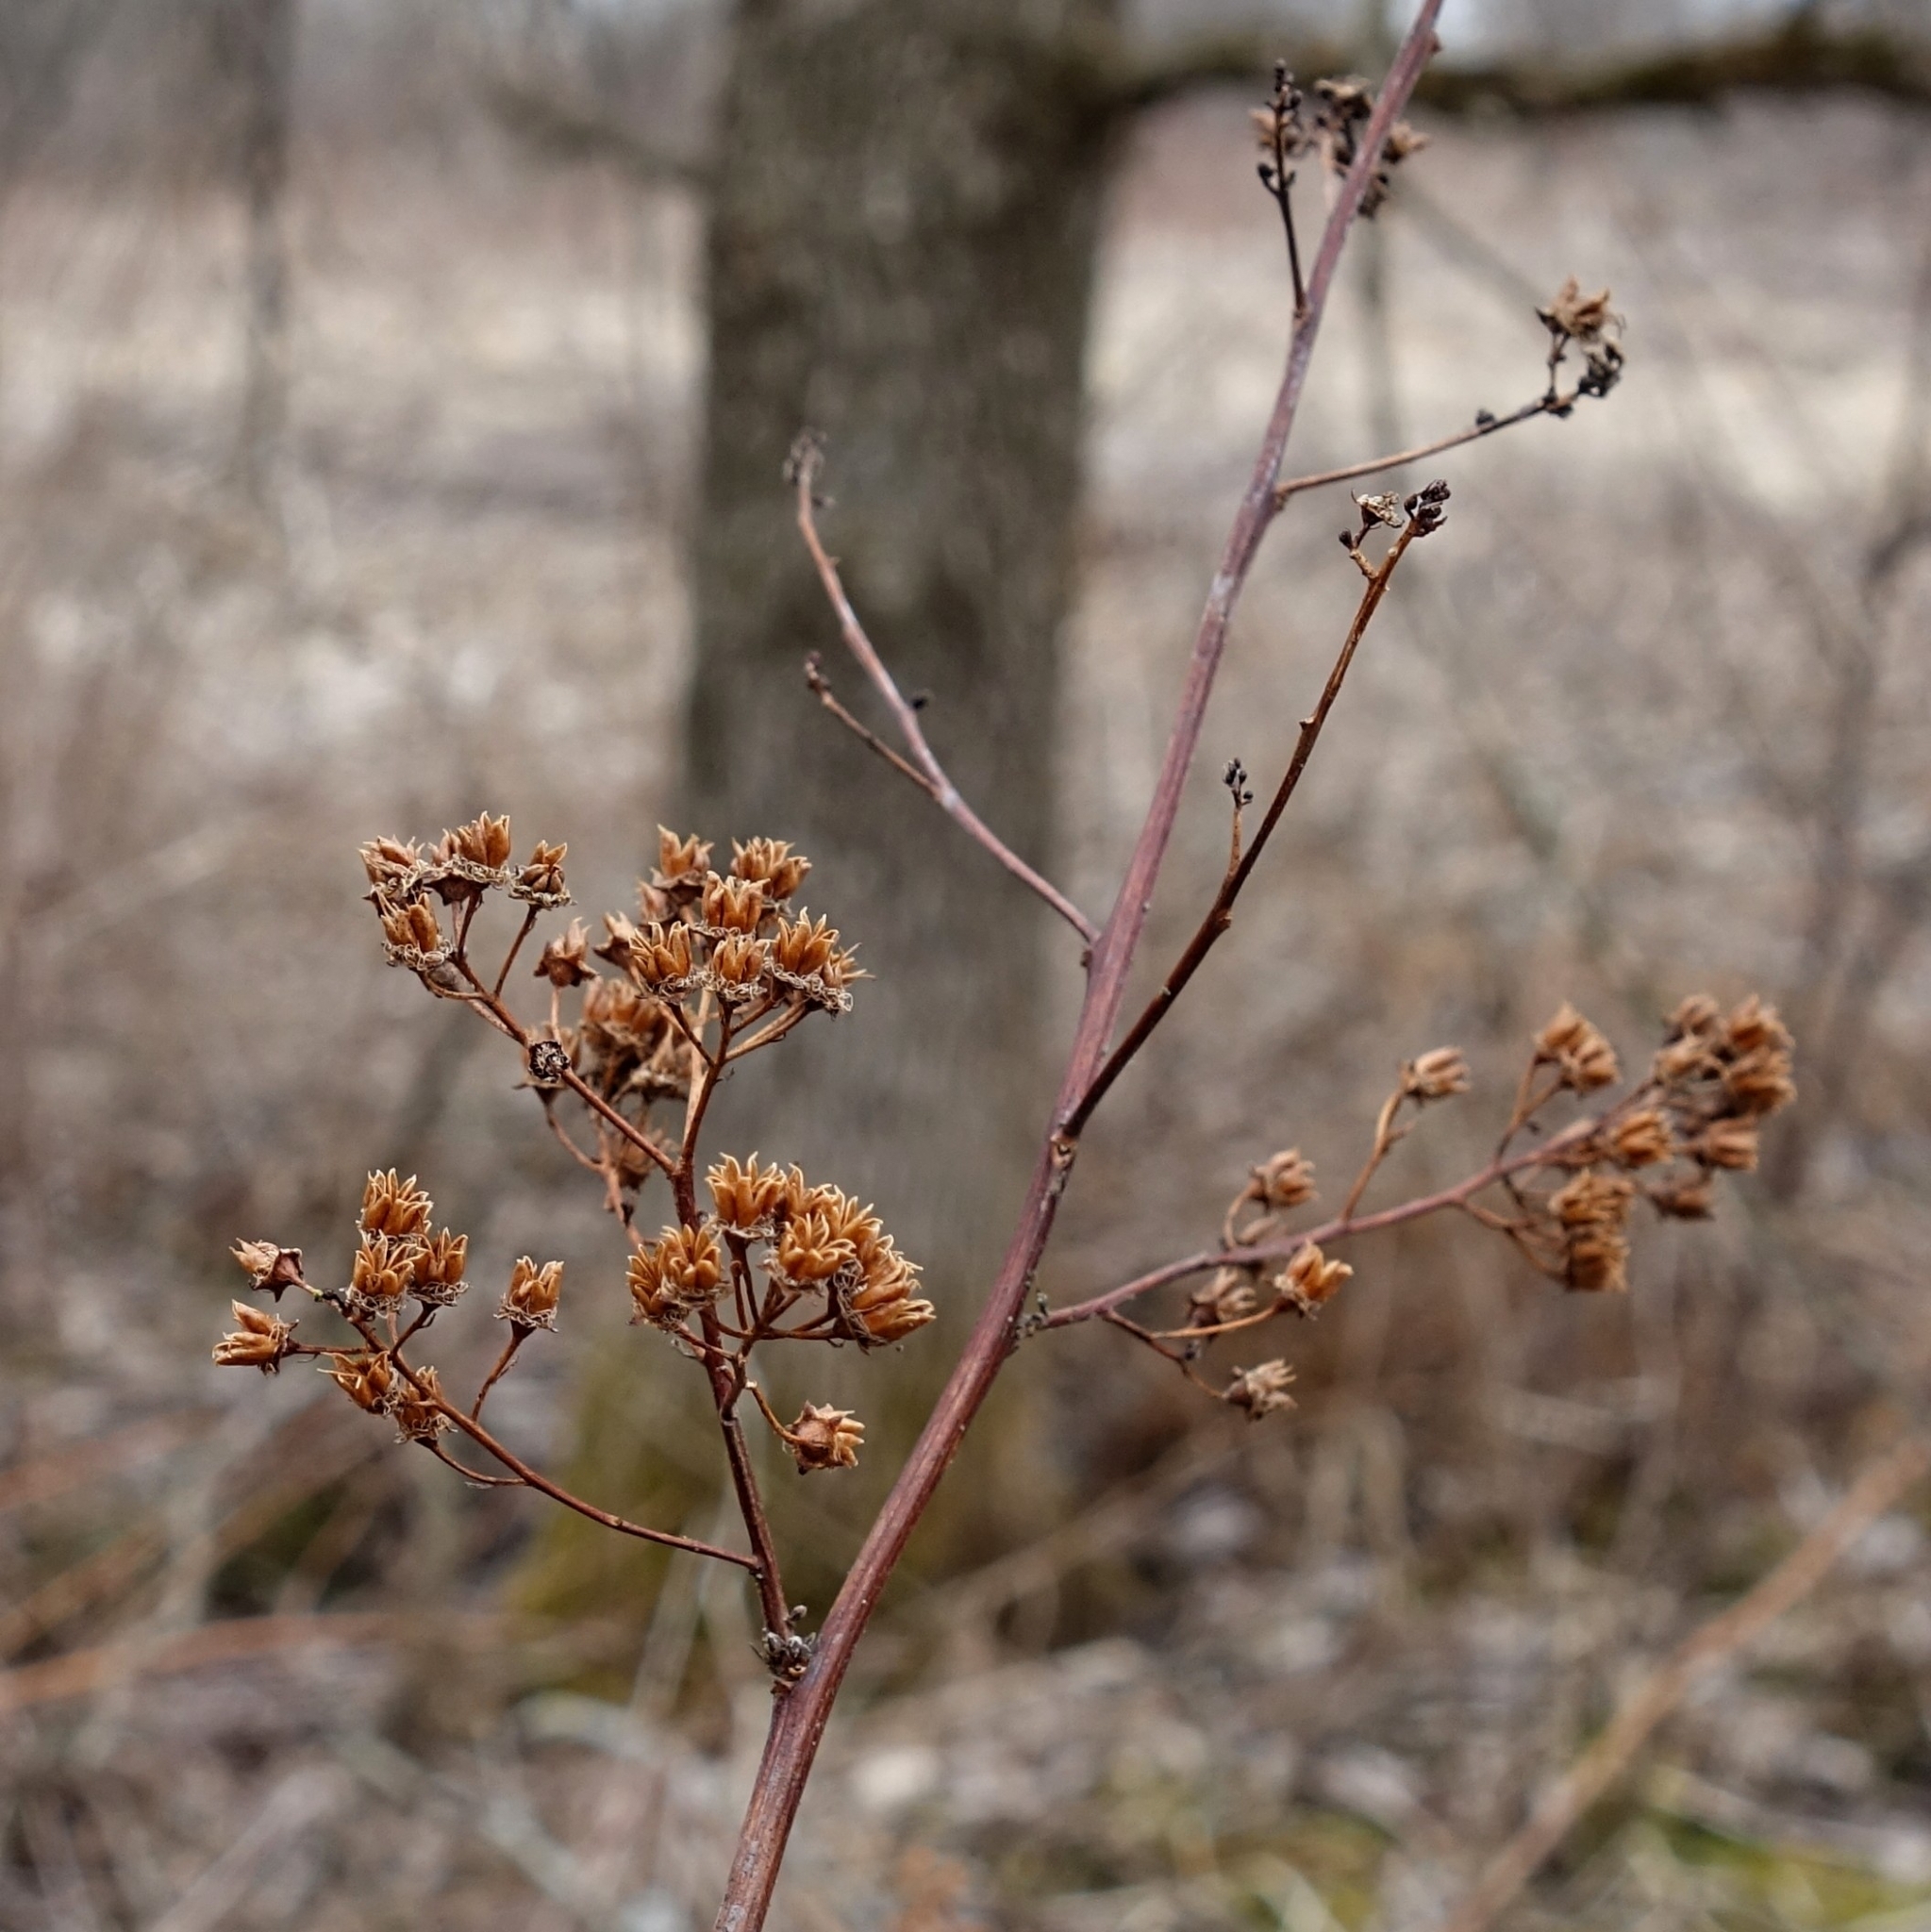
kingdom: Plantae
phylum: Tracheophyta
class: Magnoliopsida
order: Rosales
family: Rosaceae
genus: Spiraea
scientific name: Spiraea alba
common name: Pale bridewort
